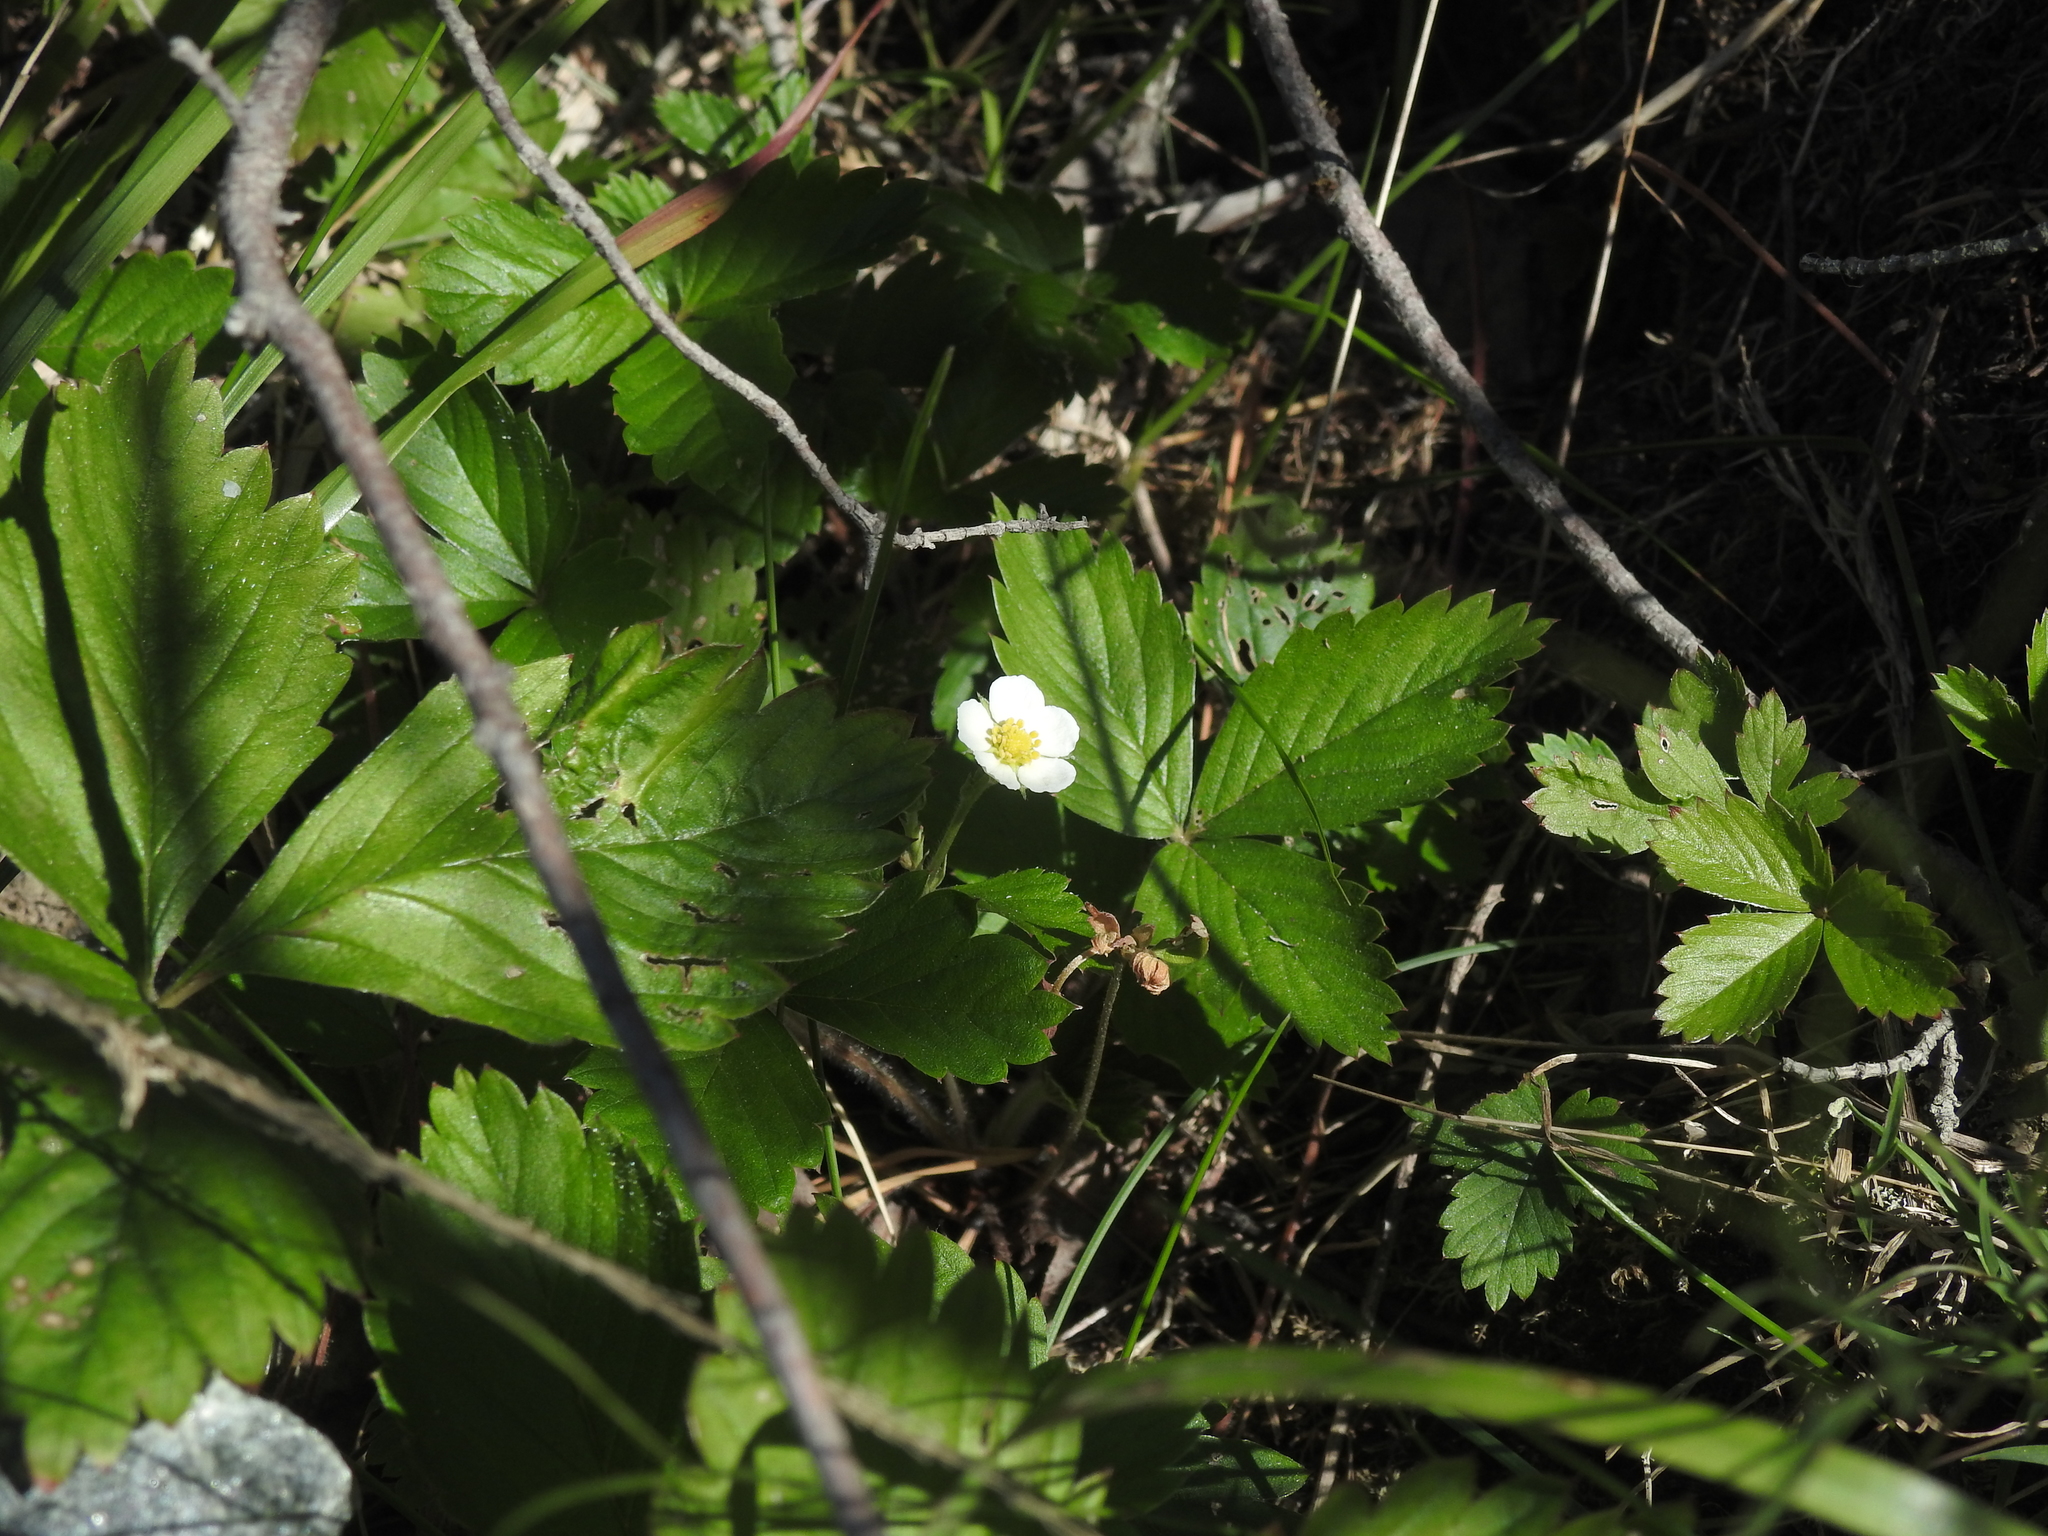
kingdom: Plantae
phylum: Tracheophyta
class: Magnoliopsida
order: Rosales
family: Rosaceae
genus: Fragaria
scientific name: Fragaria vesca
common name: Wild strawberry
